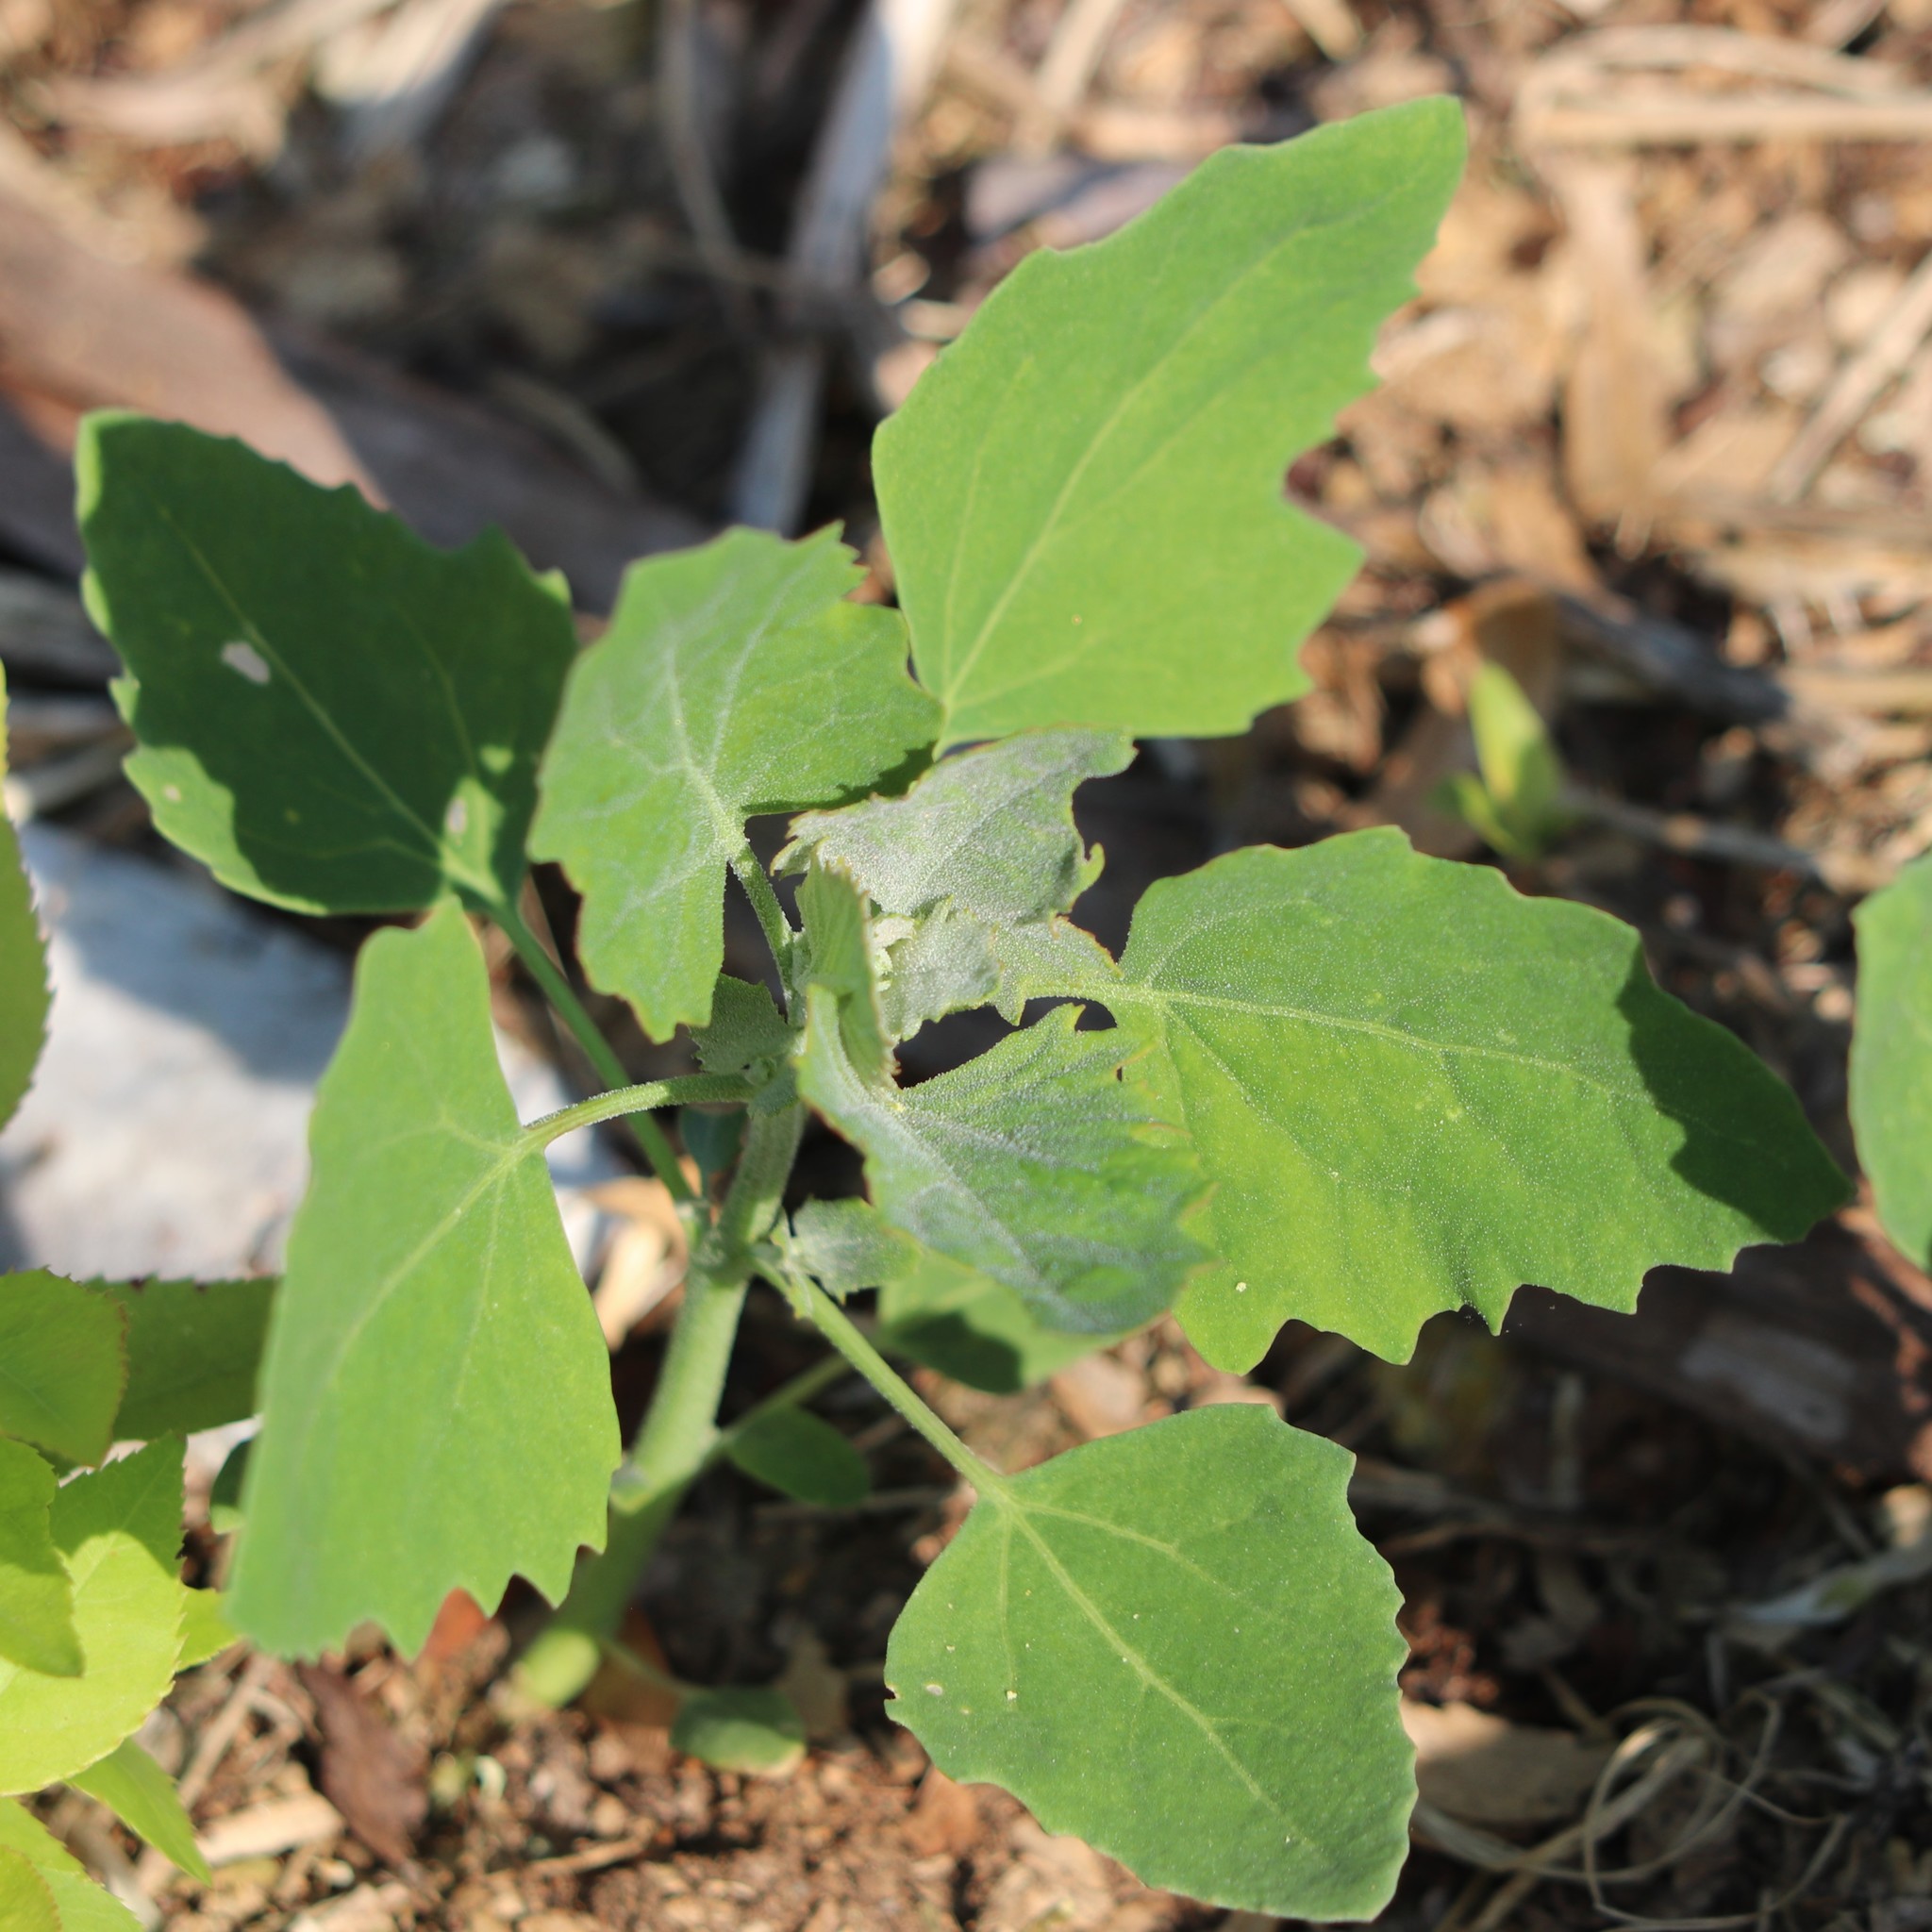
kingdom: Plantae
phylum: Tracheophyta
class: Magnoliopsida
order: Caryophyllales
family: Amaranthaceae
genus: Chenopodium
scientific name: Chenopodium album
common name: Fat-hen
